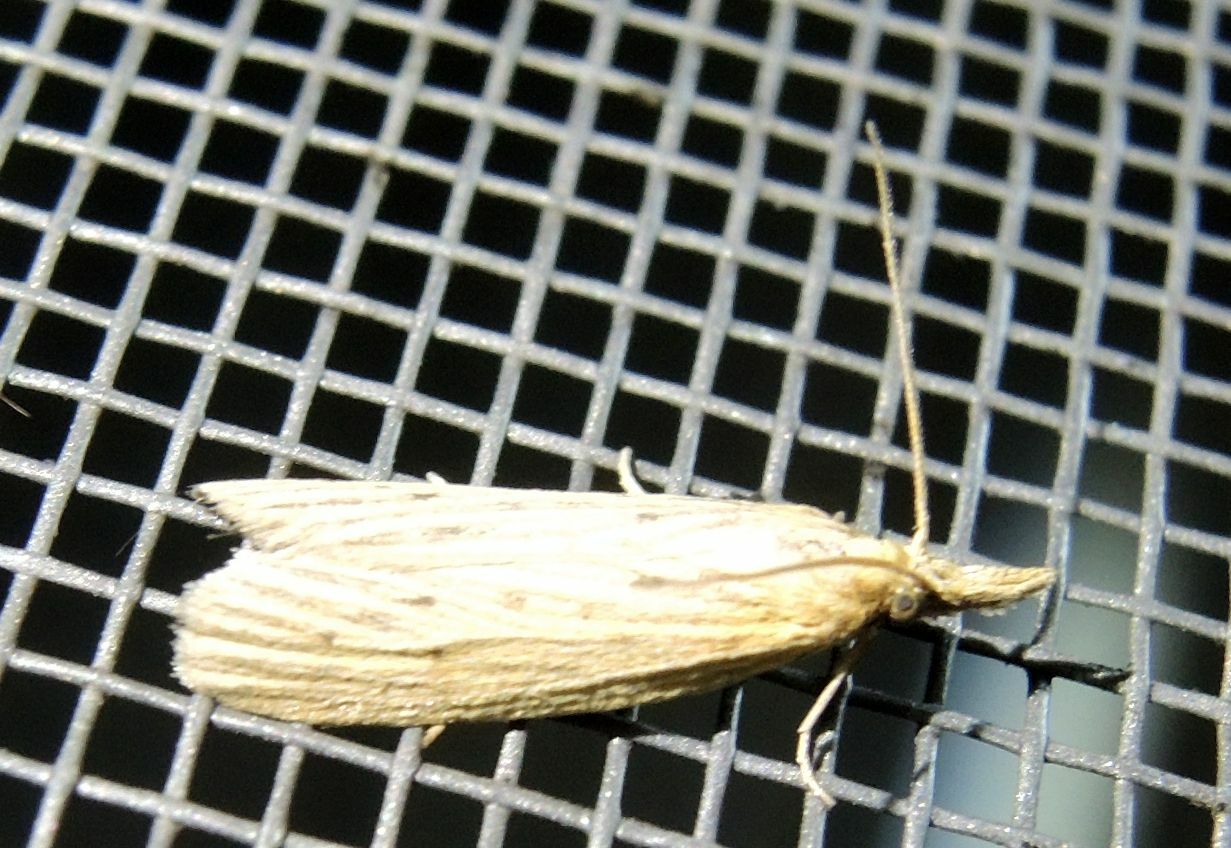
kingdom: Animalia
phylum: Arthropoda
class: Insecta
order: Lepidoptera
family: Pyralidae
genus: Ematheudes
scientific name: Ematheudes punctellus
